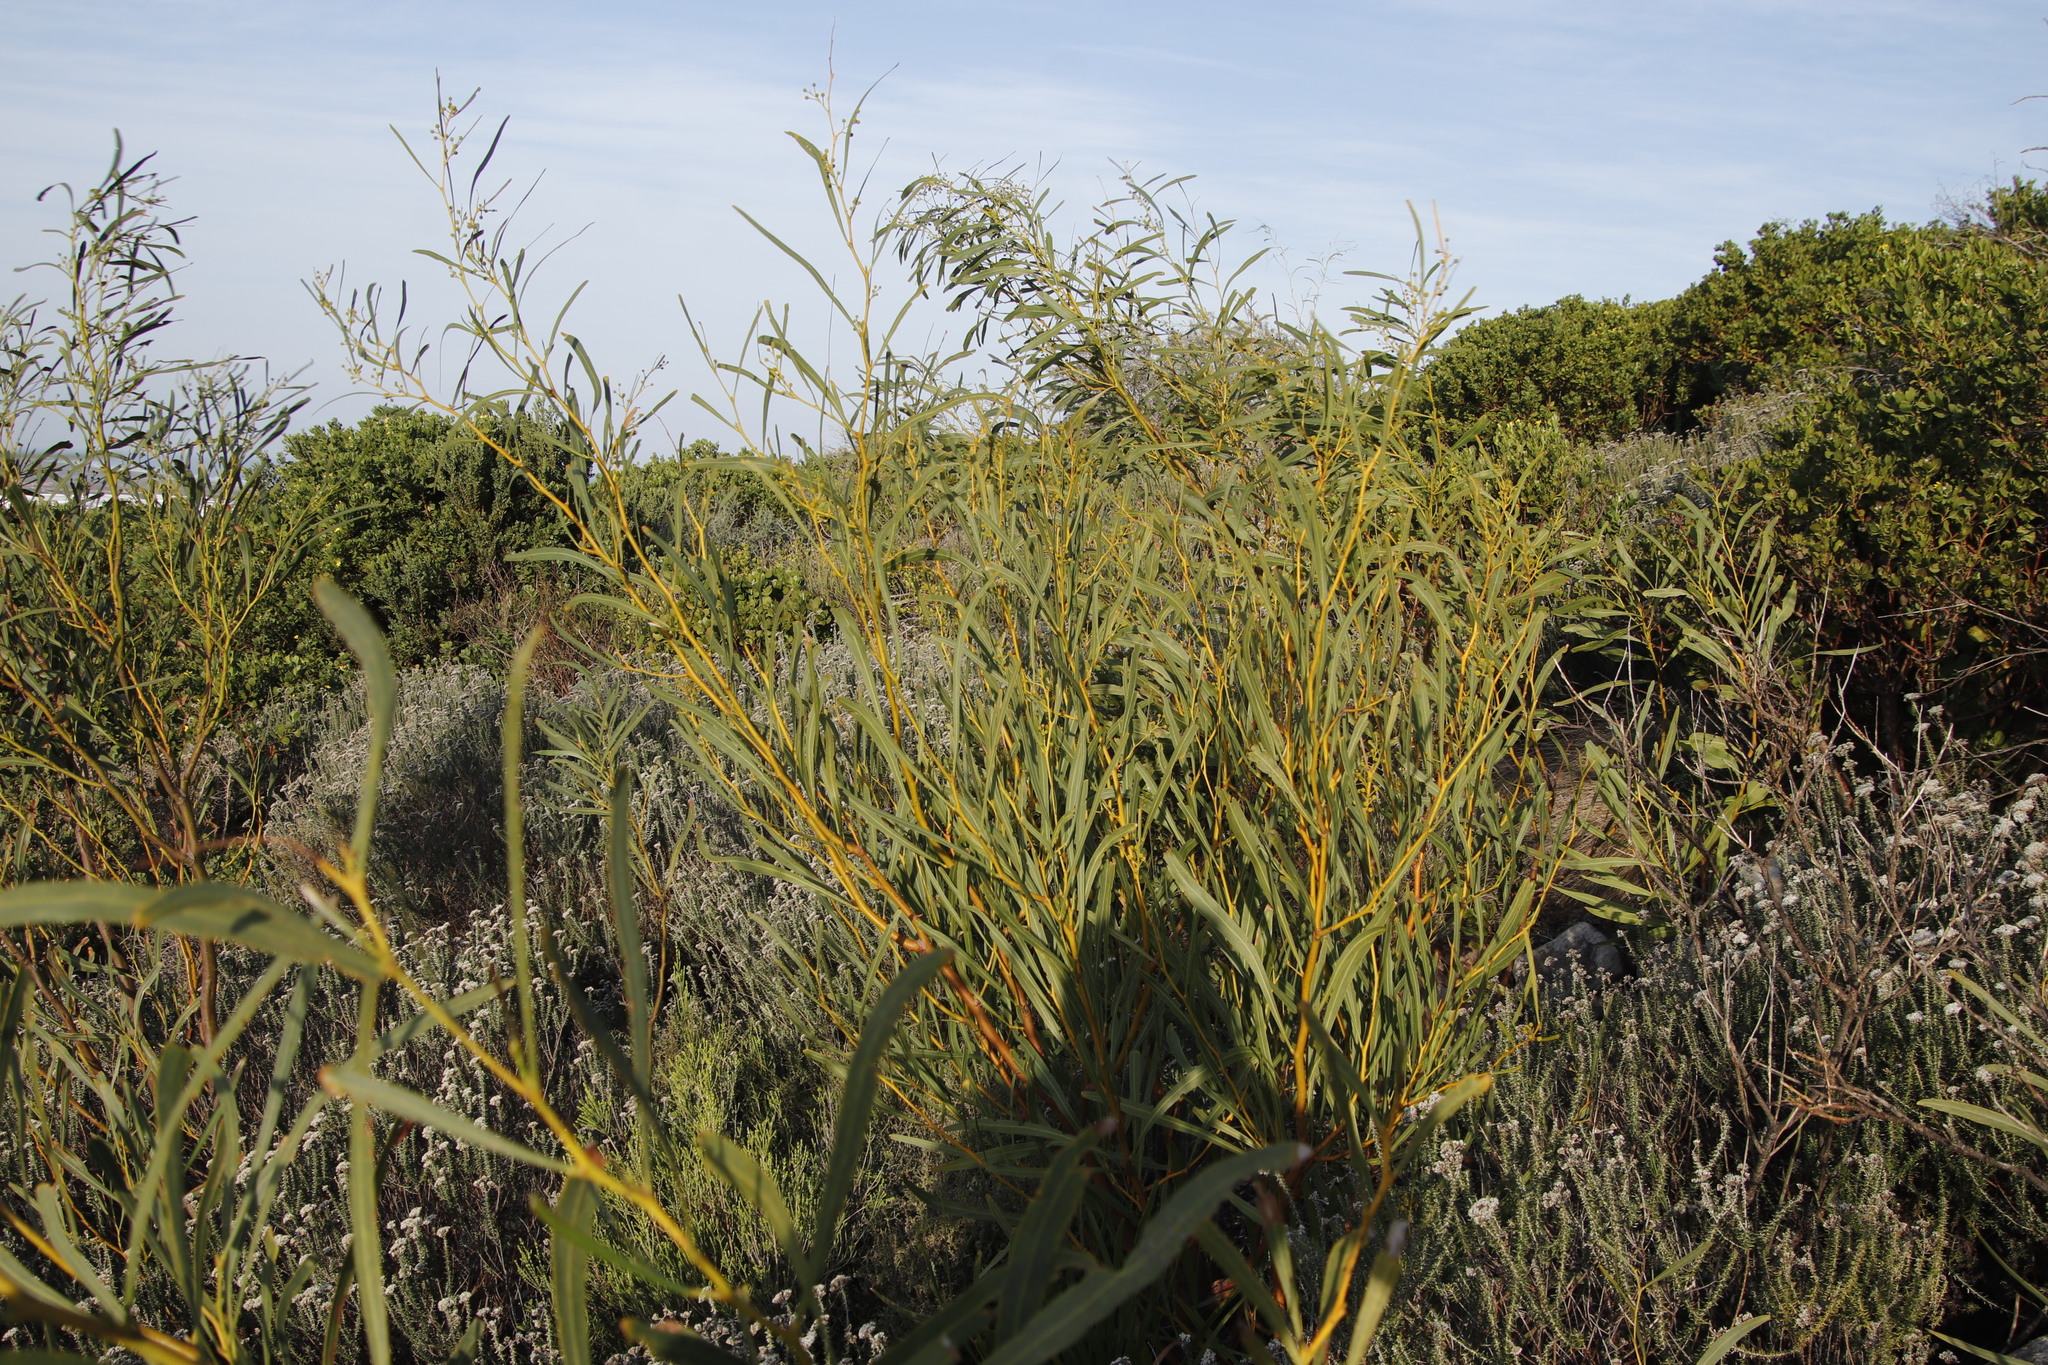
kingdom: Plantae
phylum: Tracheophyta
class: Magnoliopsida
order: Fabales
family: Fabaceae
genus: Acacia
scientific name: Acacia saligna
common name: Orange wattle
